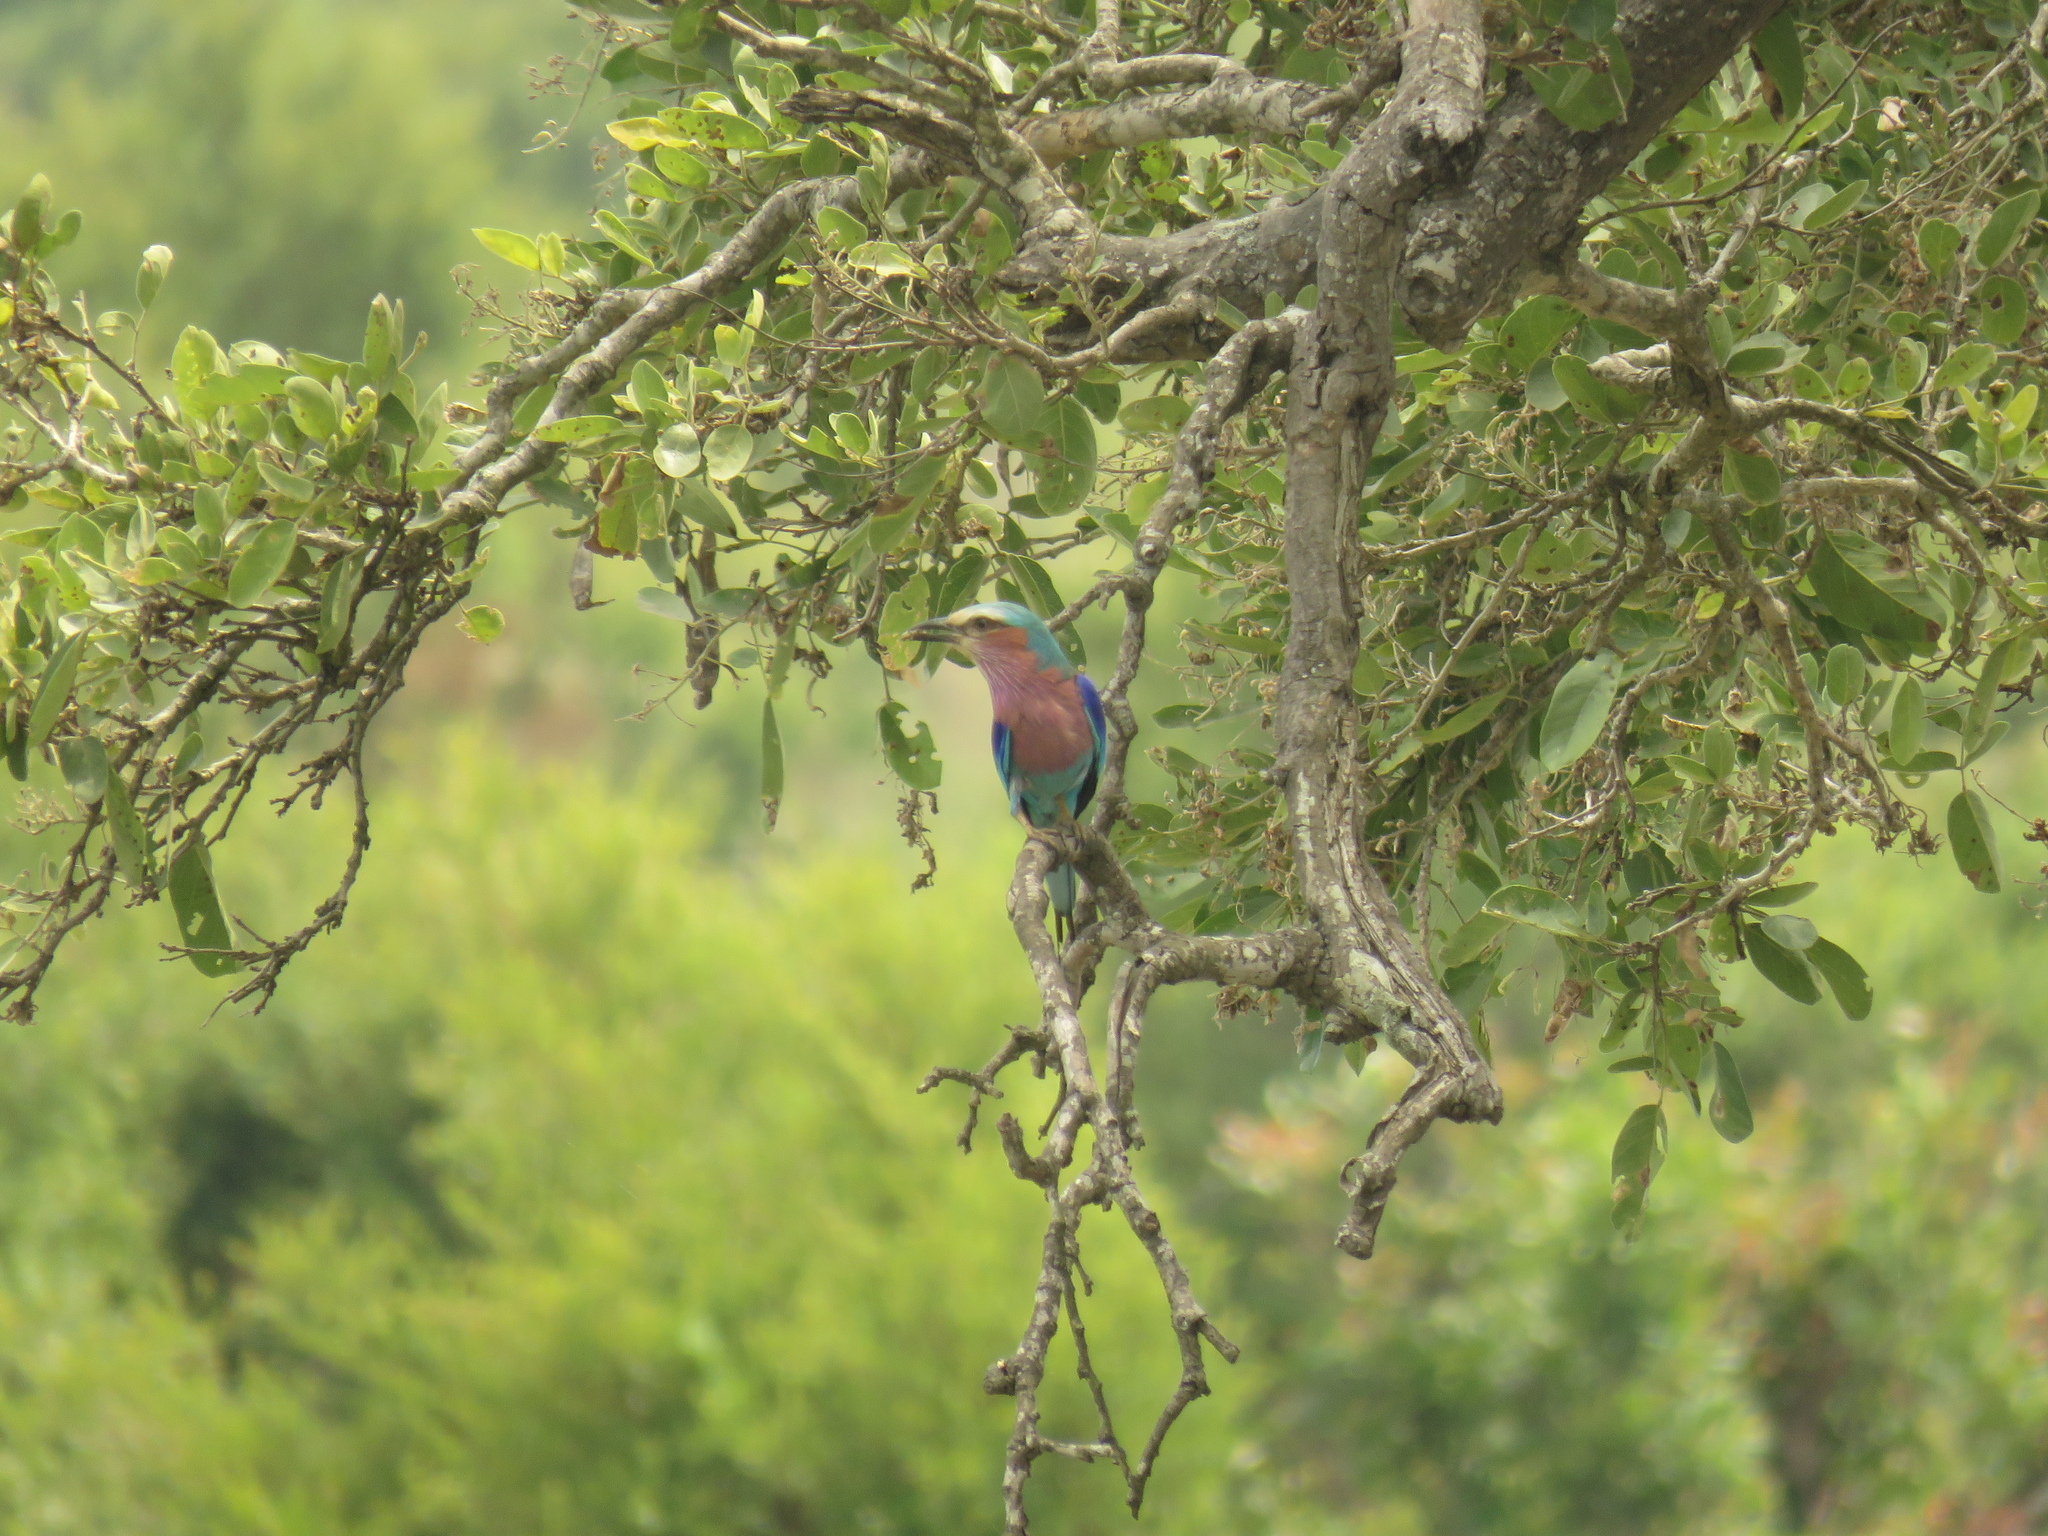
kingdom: Animalia
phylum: Chordata
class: Aves
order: Coraciiformes
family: Coraciidae
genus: Coracias
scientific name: Coracias caudatus
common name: Lilac-breasted roller
